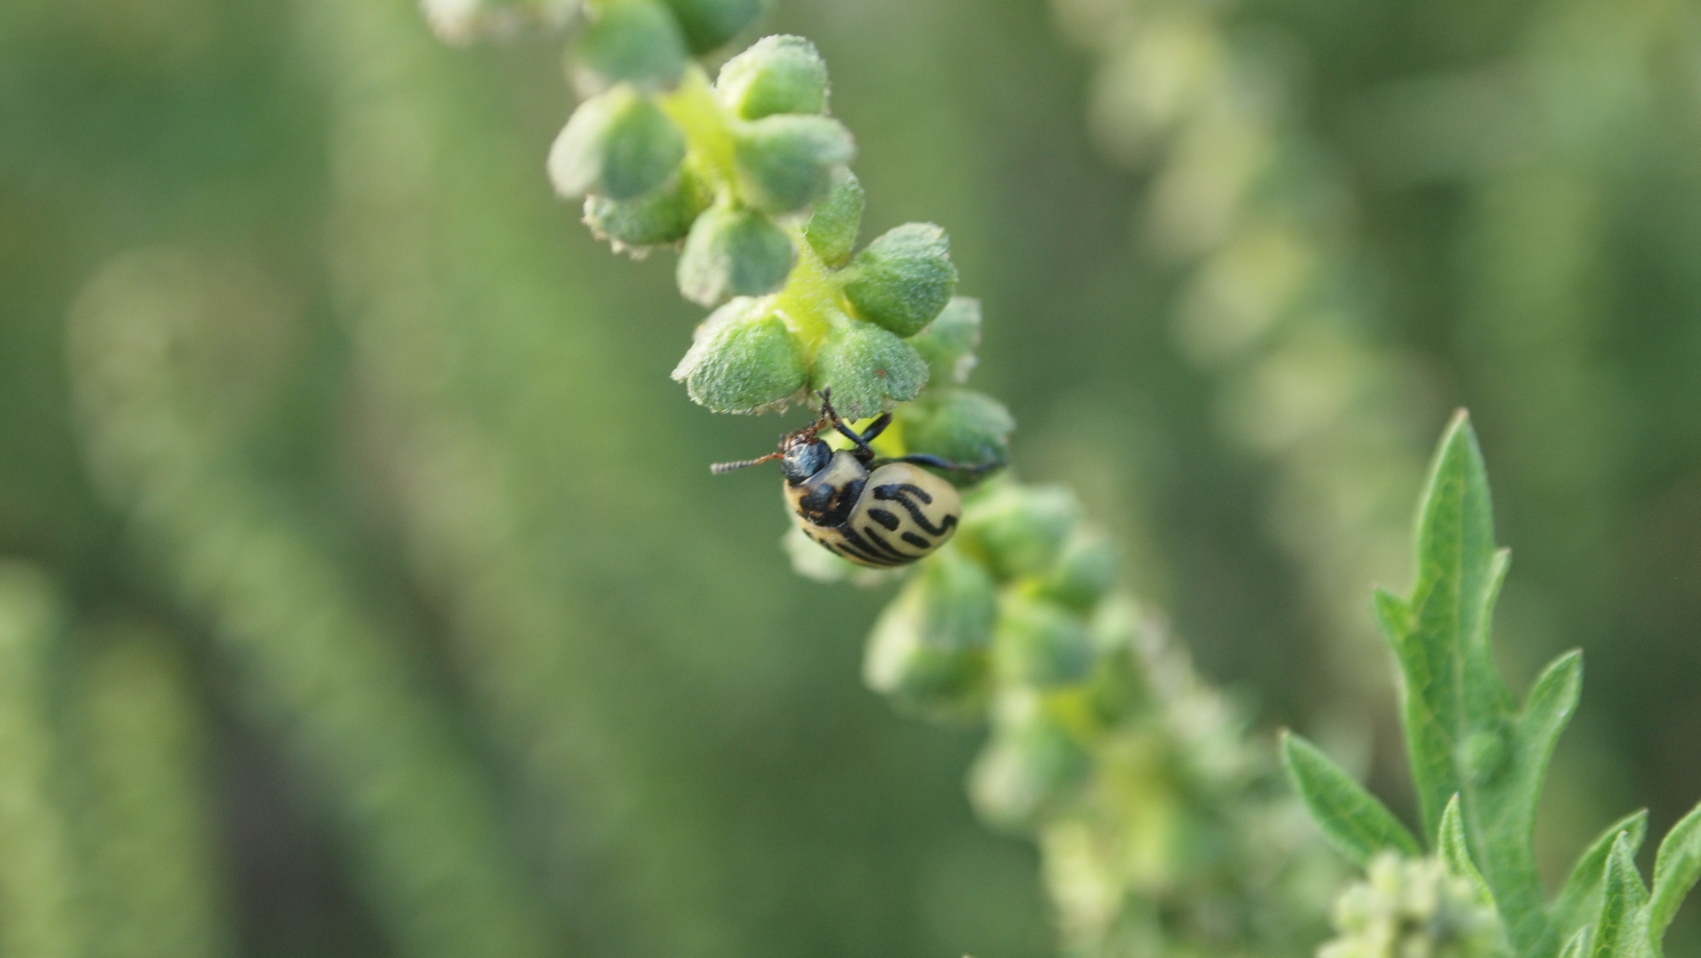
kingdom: Animalia
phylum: Arthropoda
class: Insecta
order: Coleoptera
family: Chrysomelidae
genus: Calligrapha
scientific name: Calligrapha
